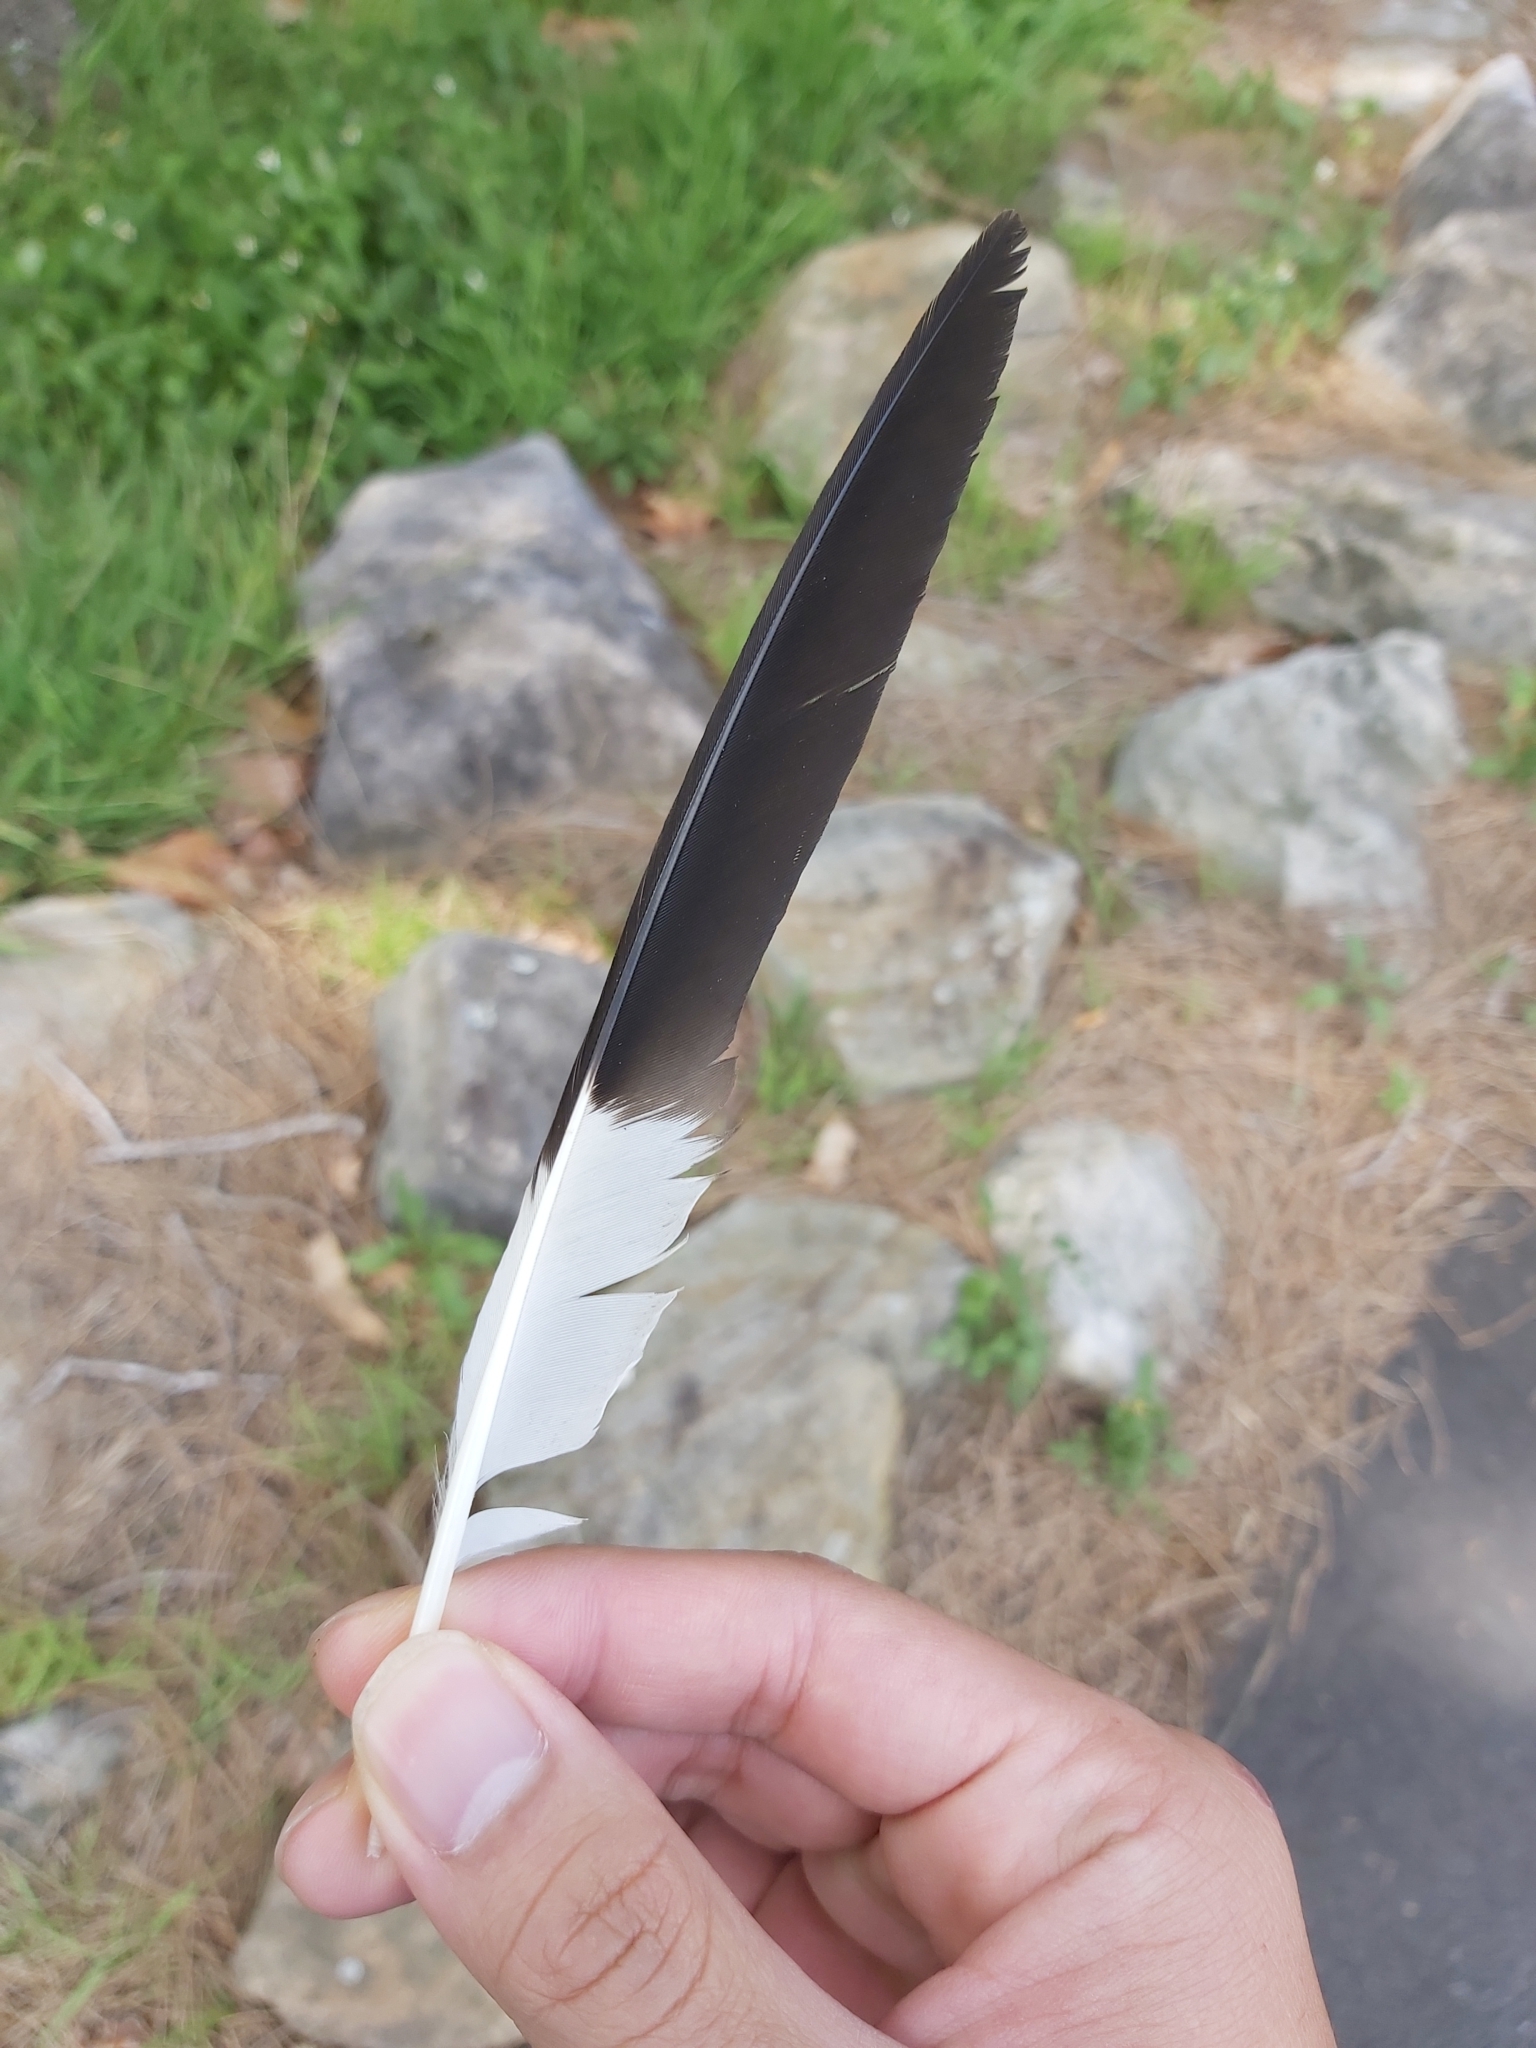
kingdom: Animalia
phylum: Chordata
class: Aves
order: Passeriformes
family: Cracticidae
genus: Strepera
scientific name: Strepera graculina
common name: Pied currawong
